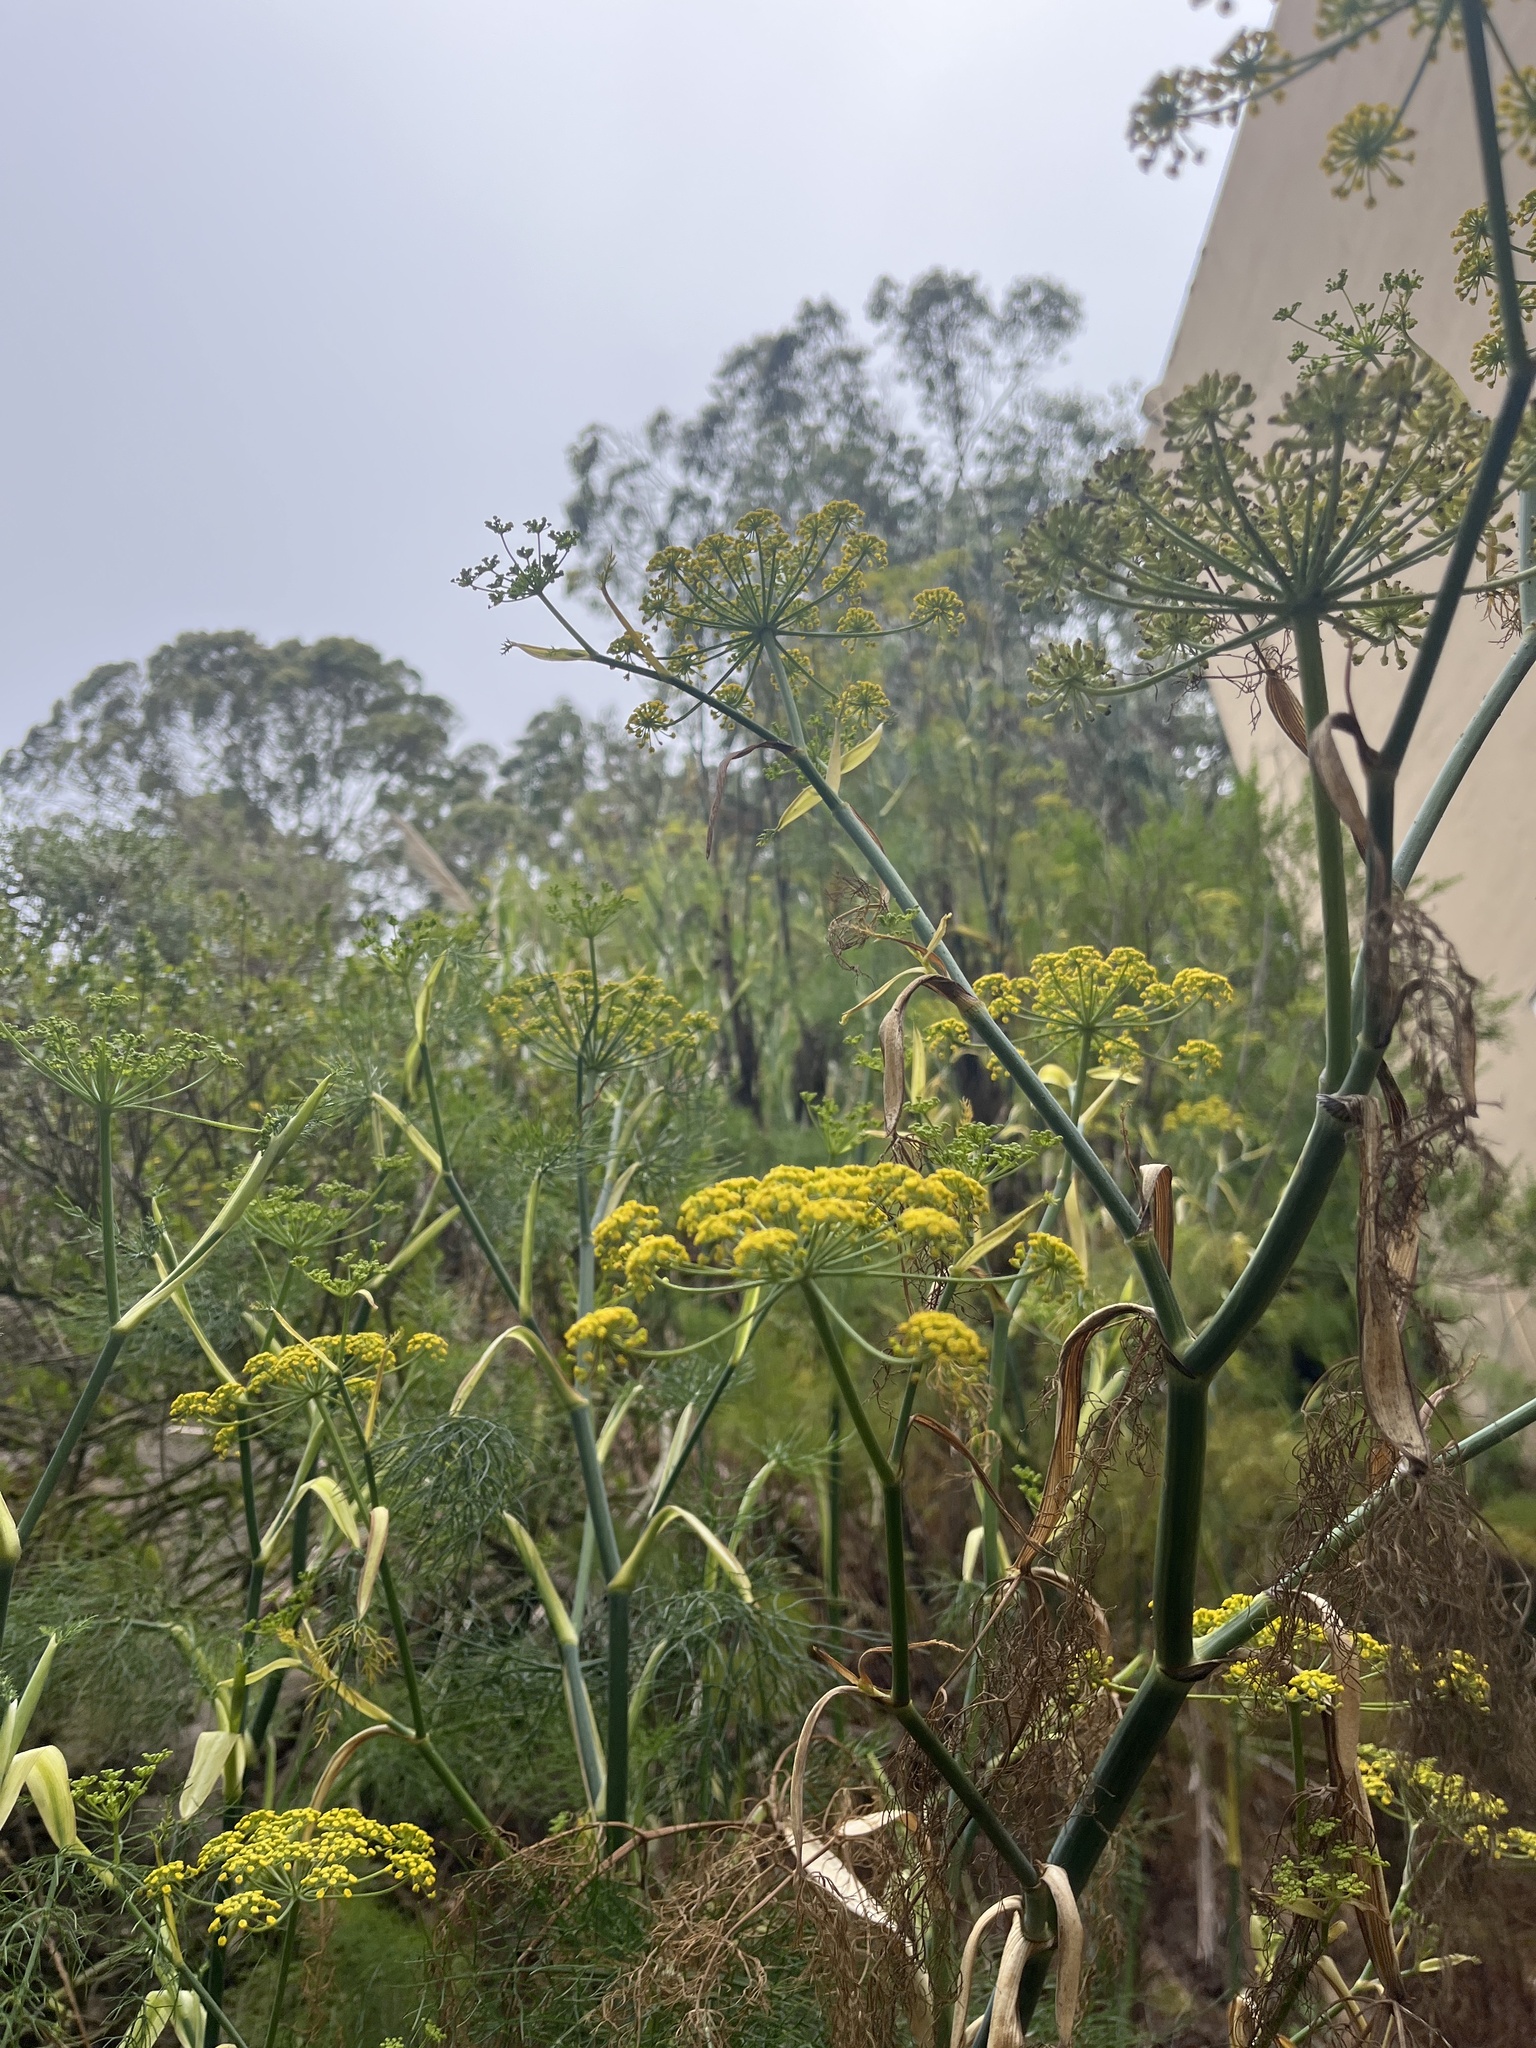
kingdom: Plantae
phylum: Tracheophyta
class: Magnoliopsida
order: Apiales
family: Apiaceae
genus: Foeniculum
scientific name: Foeniculum vulgare
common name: Fennel
